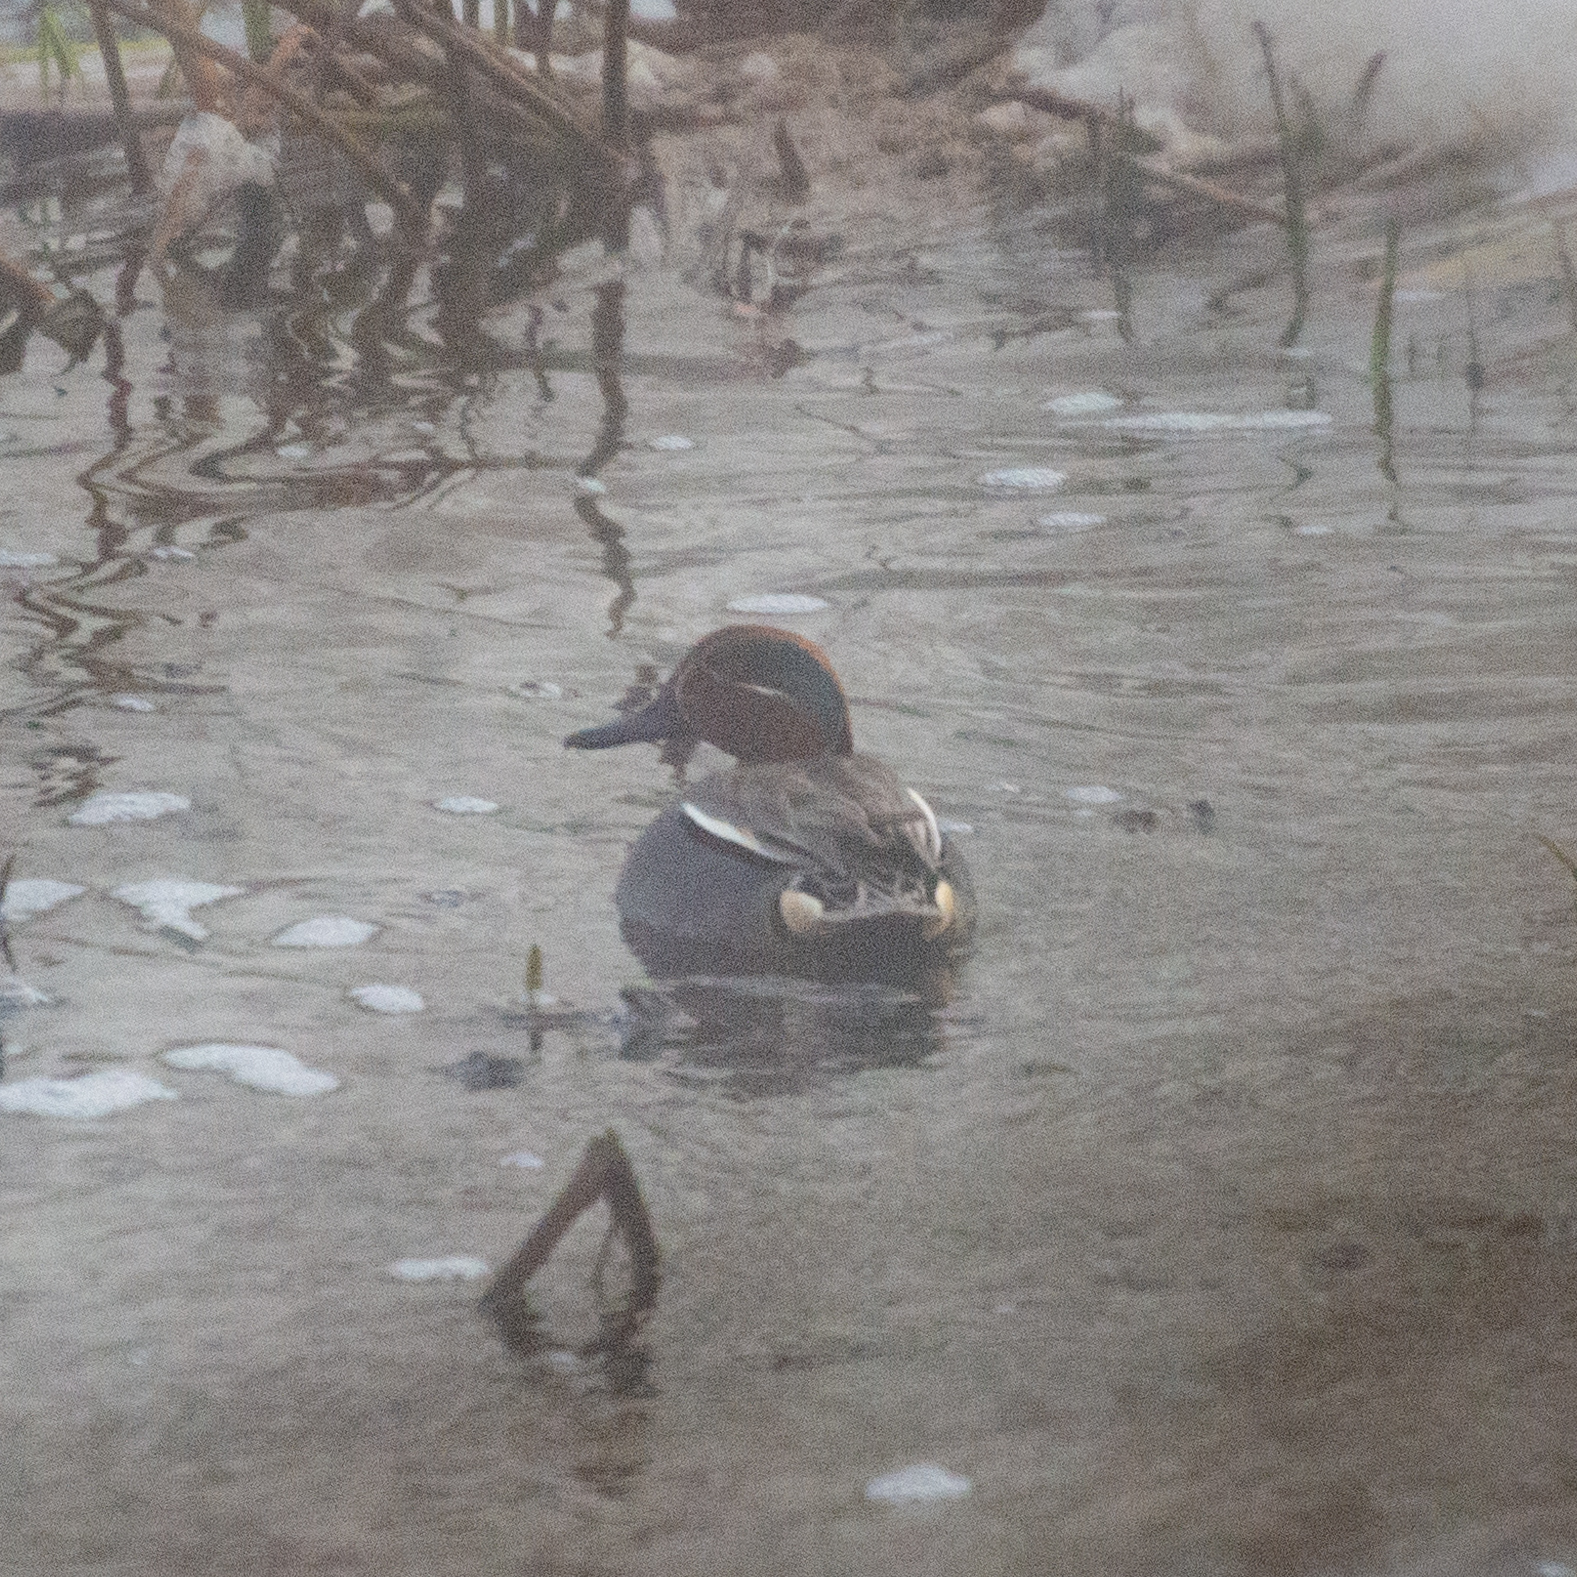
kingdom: Animalia
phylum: Chordata
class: Aves
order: Anseriformes
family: Anatidae
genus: Anas
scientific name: Anas crecca
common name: Eurasian teal
